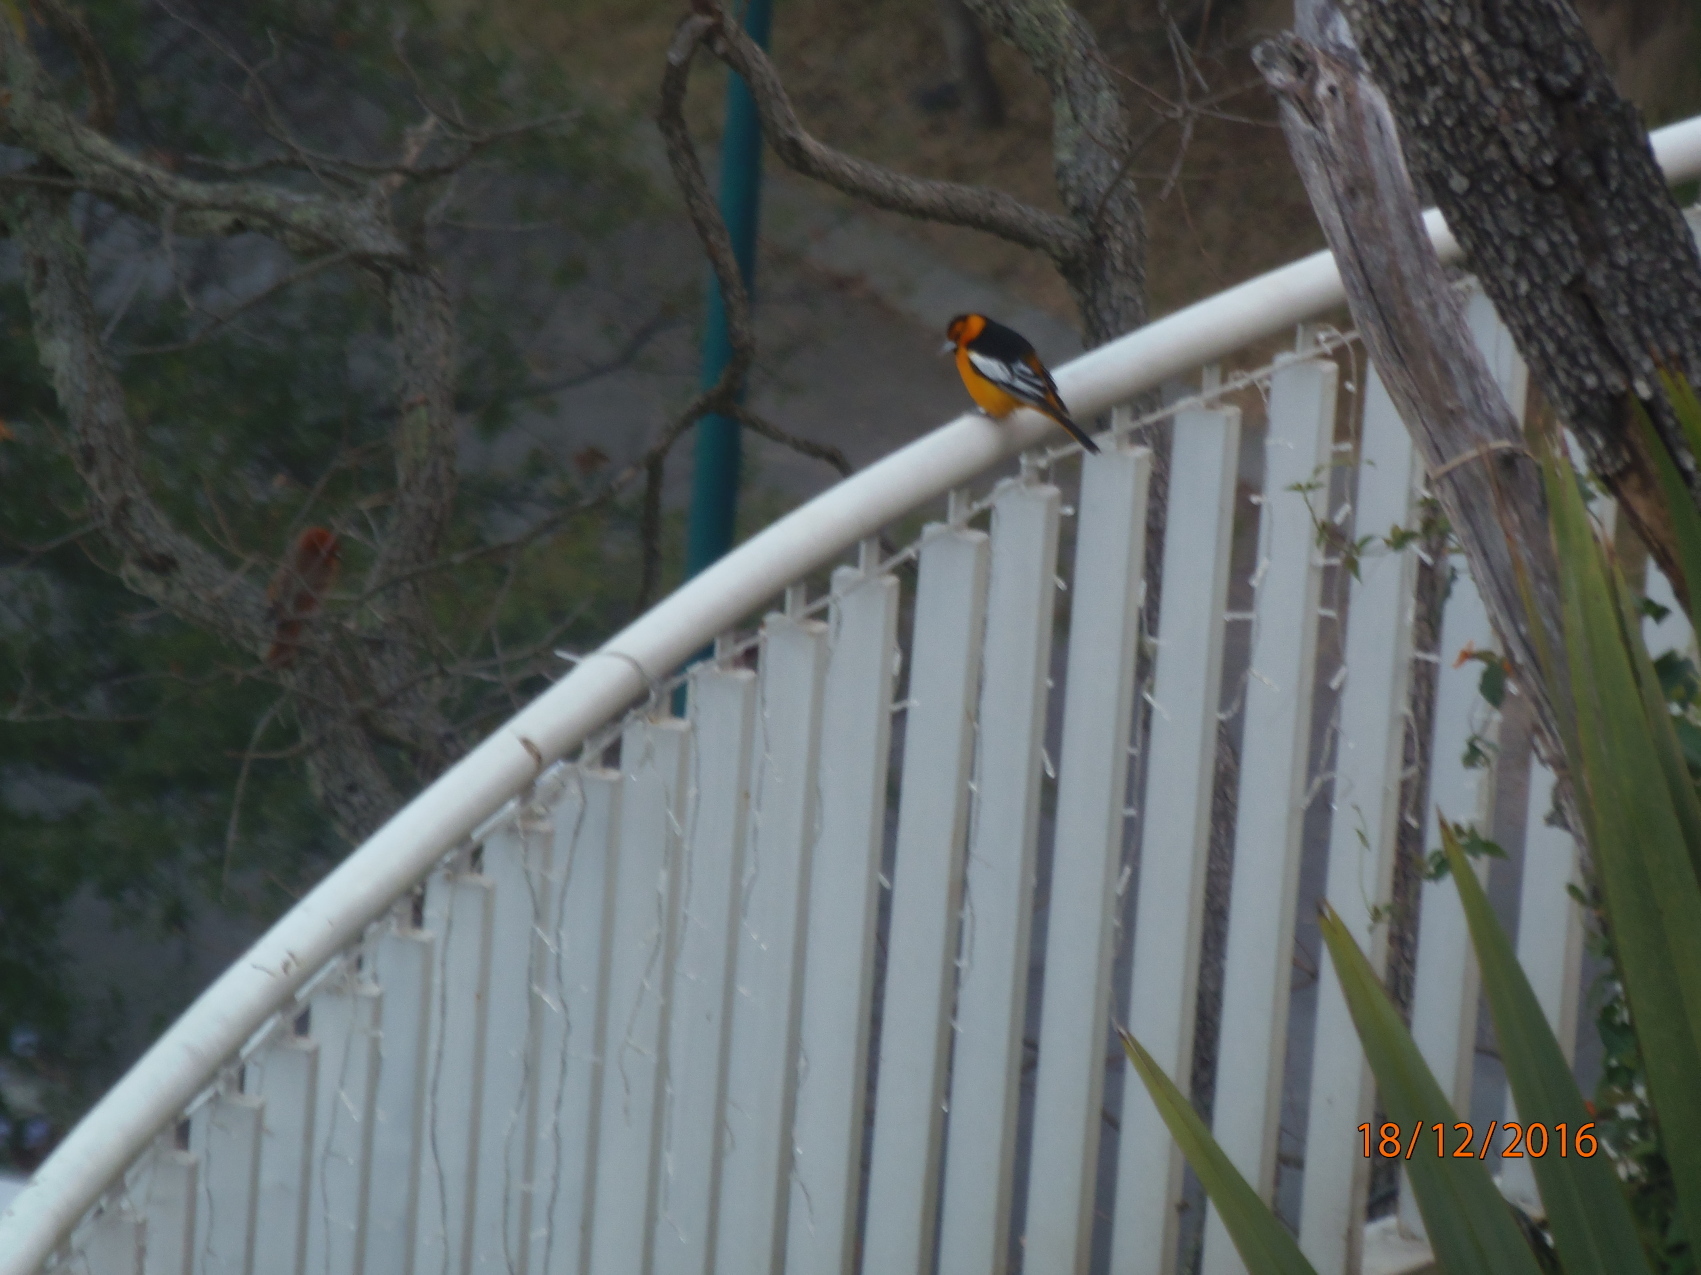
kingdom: Animalia
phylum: Chordata
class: Aves
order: Passeriformes
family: Icteridae
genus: Icterus
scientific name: Icterus bullockii
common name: Bullock's oriole
